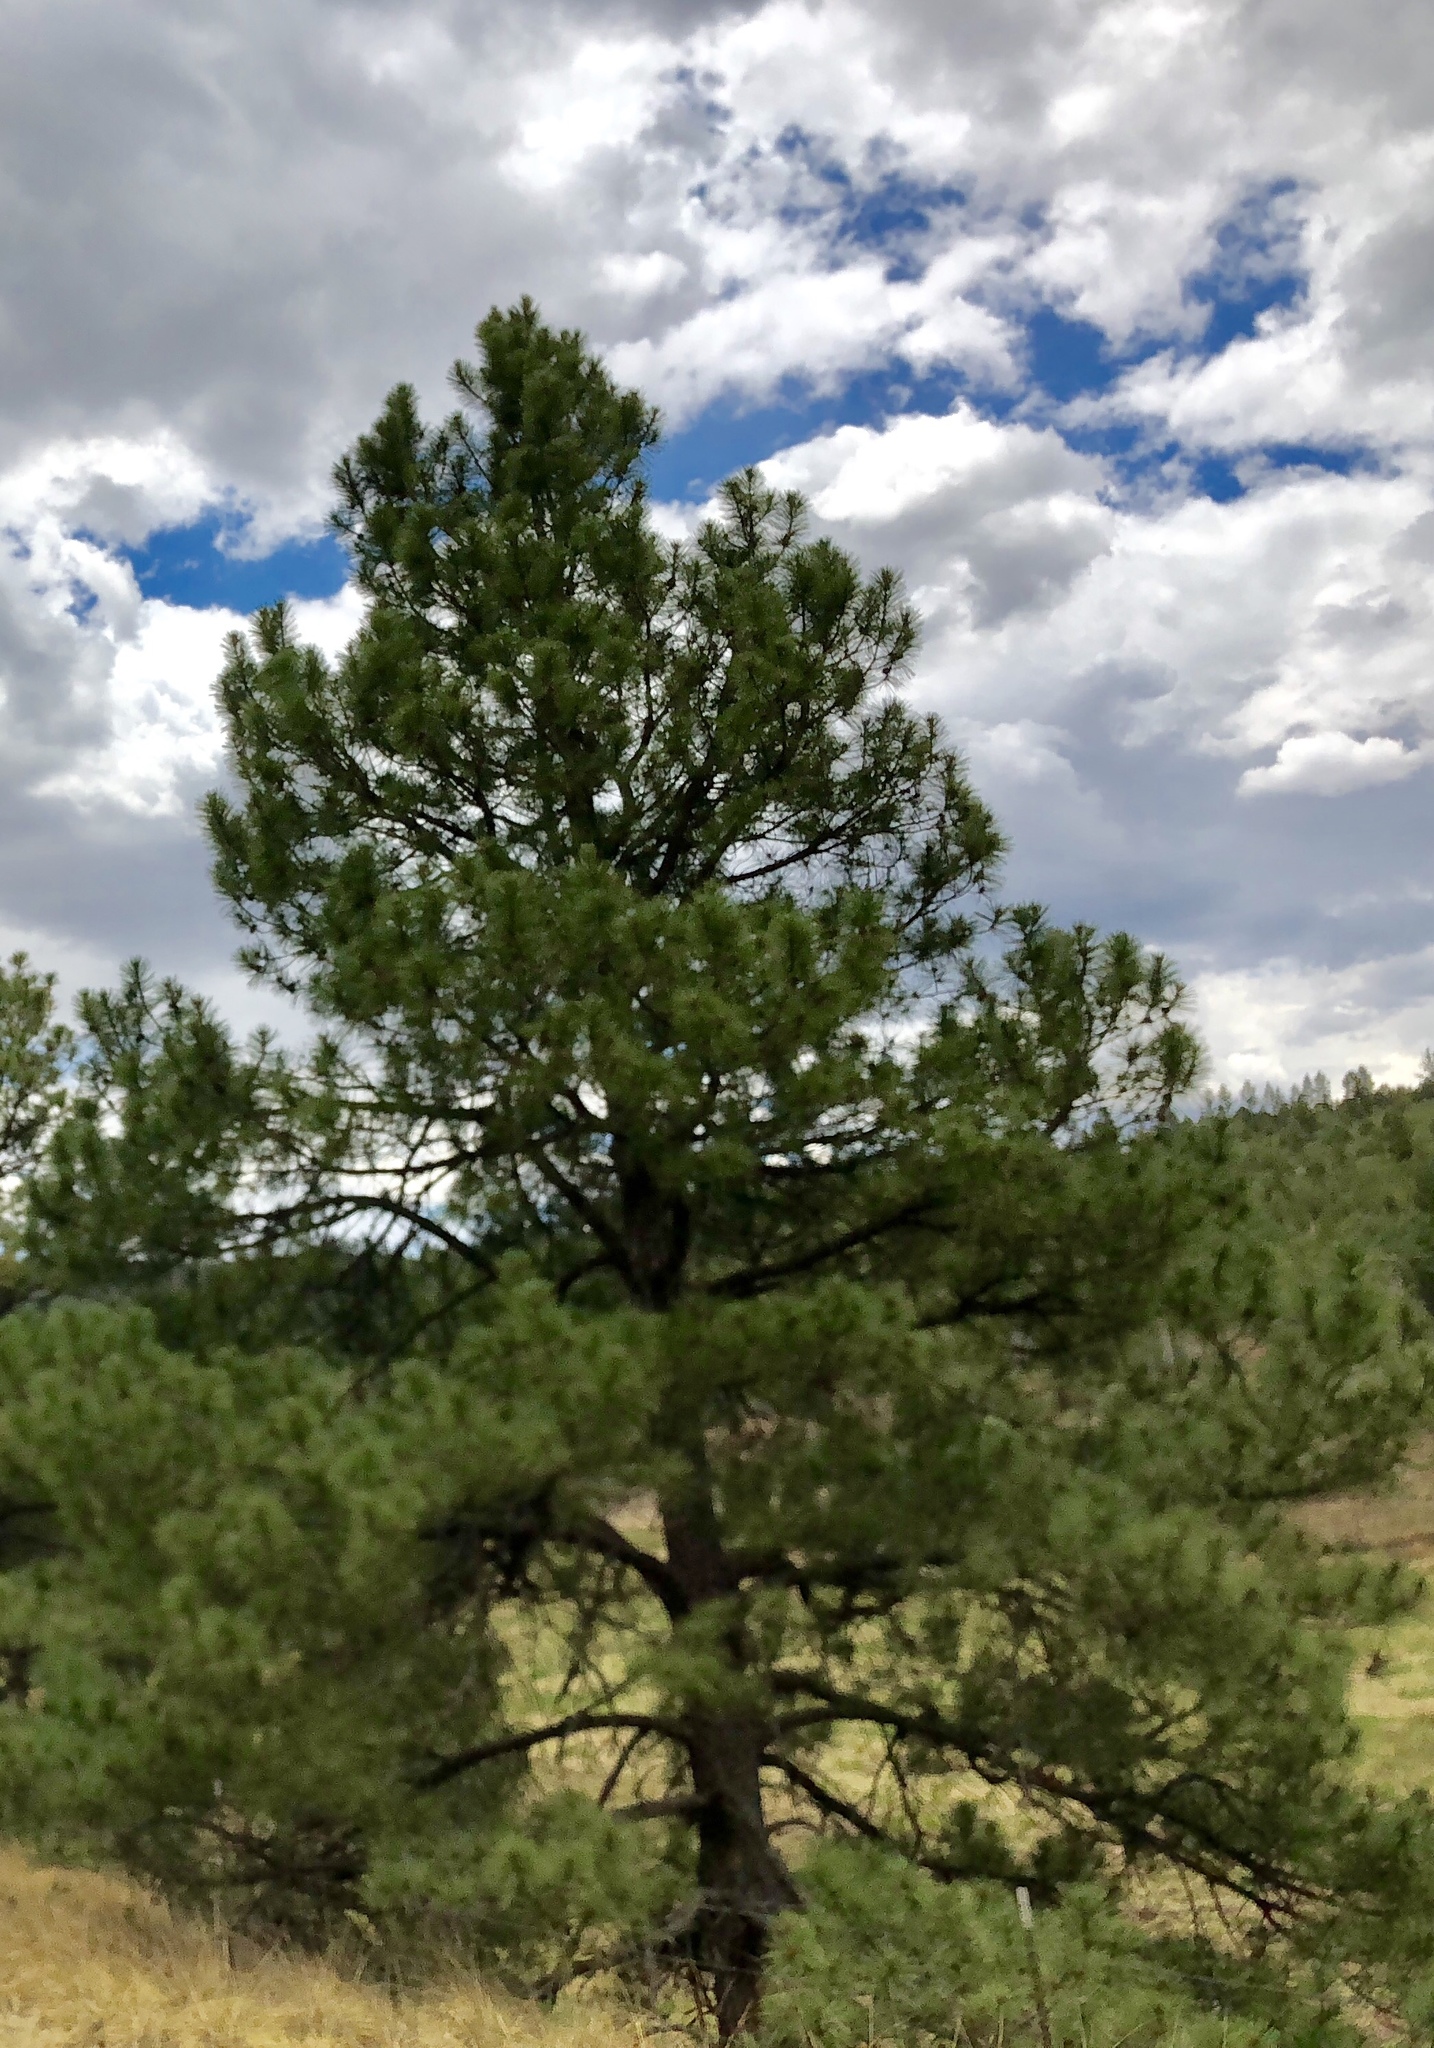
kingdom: Plantae
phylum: Tracheophyta
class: Pinopsida
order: Pinales
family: Pinaceae
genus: Pinus
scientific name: Pinus ponderosa
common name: Western yellow-pine
